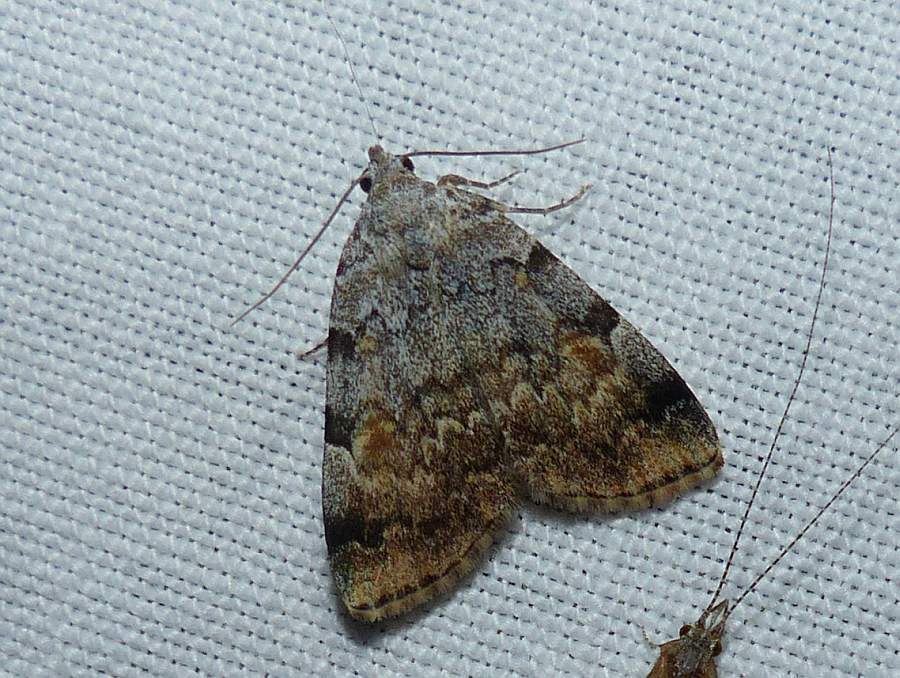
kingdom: Animalia
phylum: Arthropoda
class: Insecta
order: Lepidoptera
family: Erebidae
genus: Idia
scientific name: Idia americalis
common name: American idia moth
